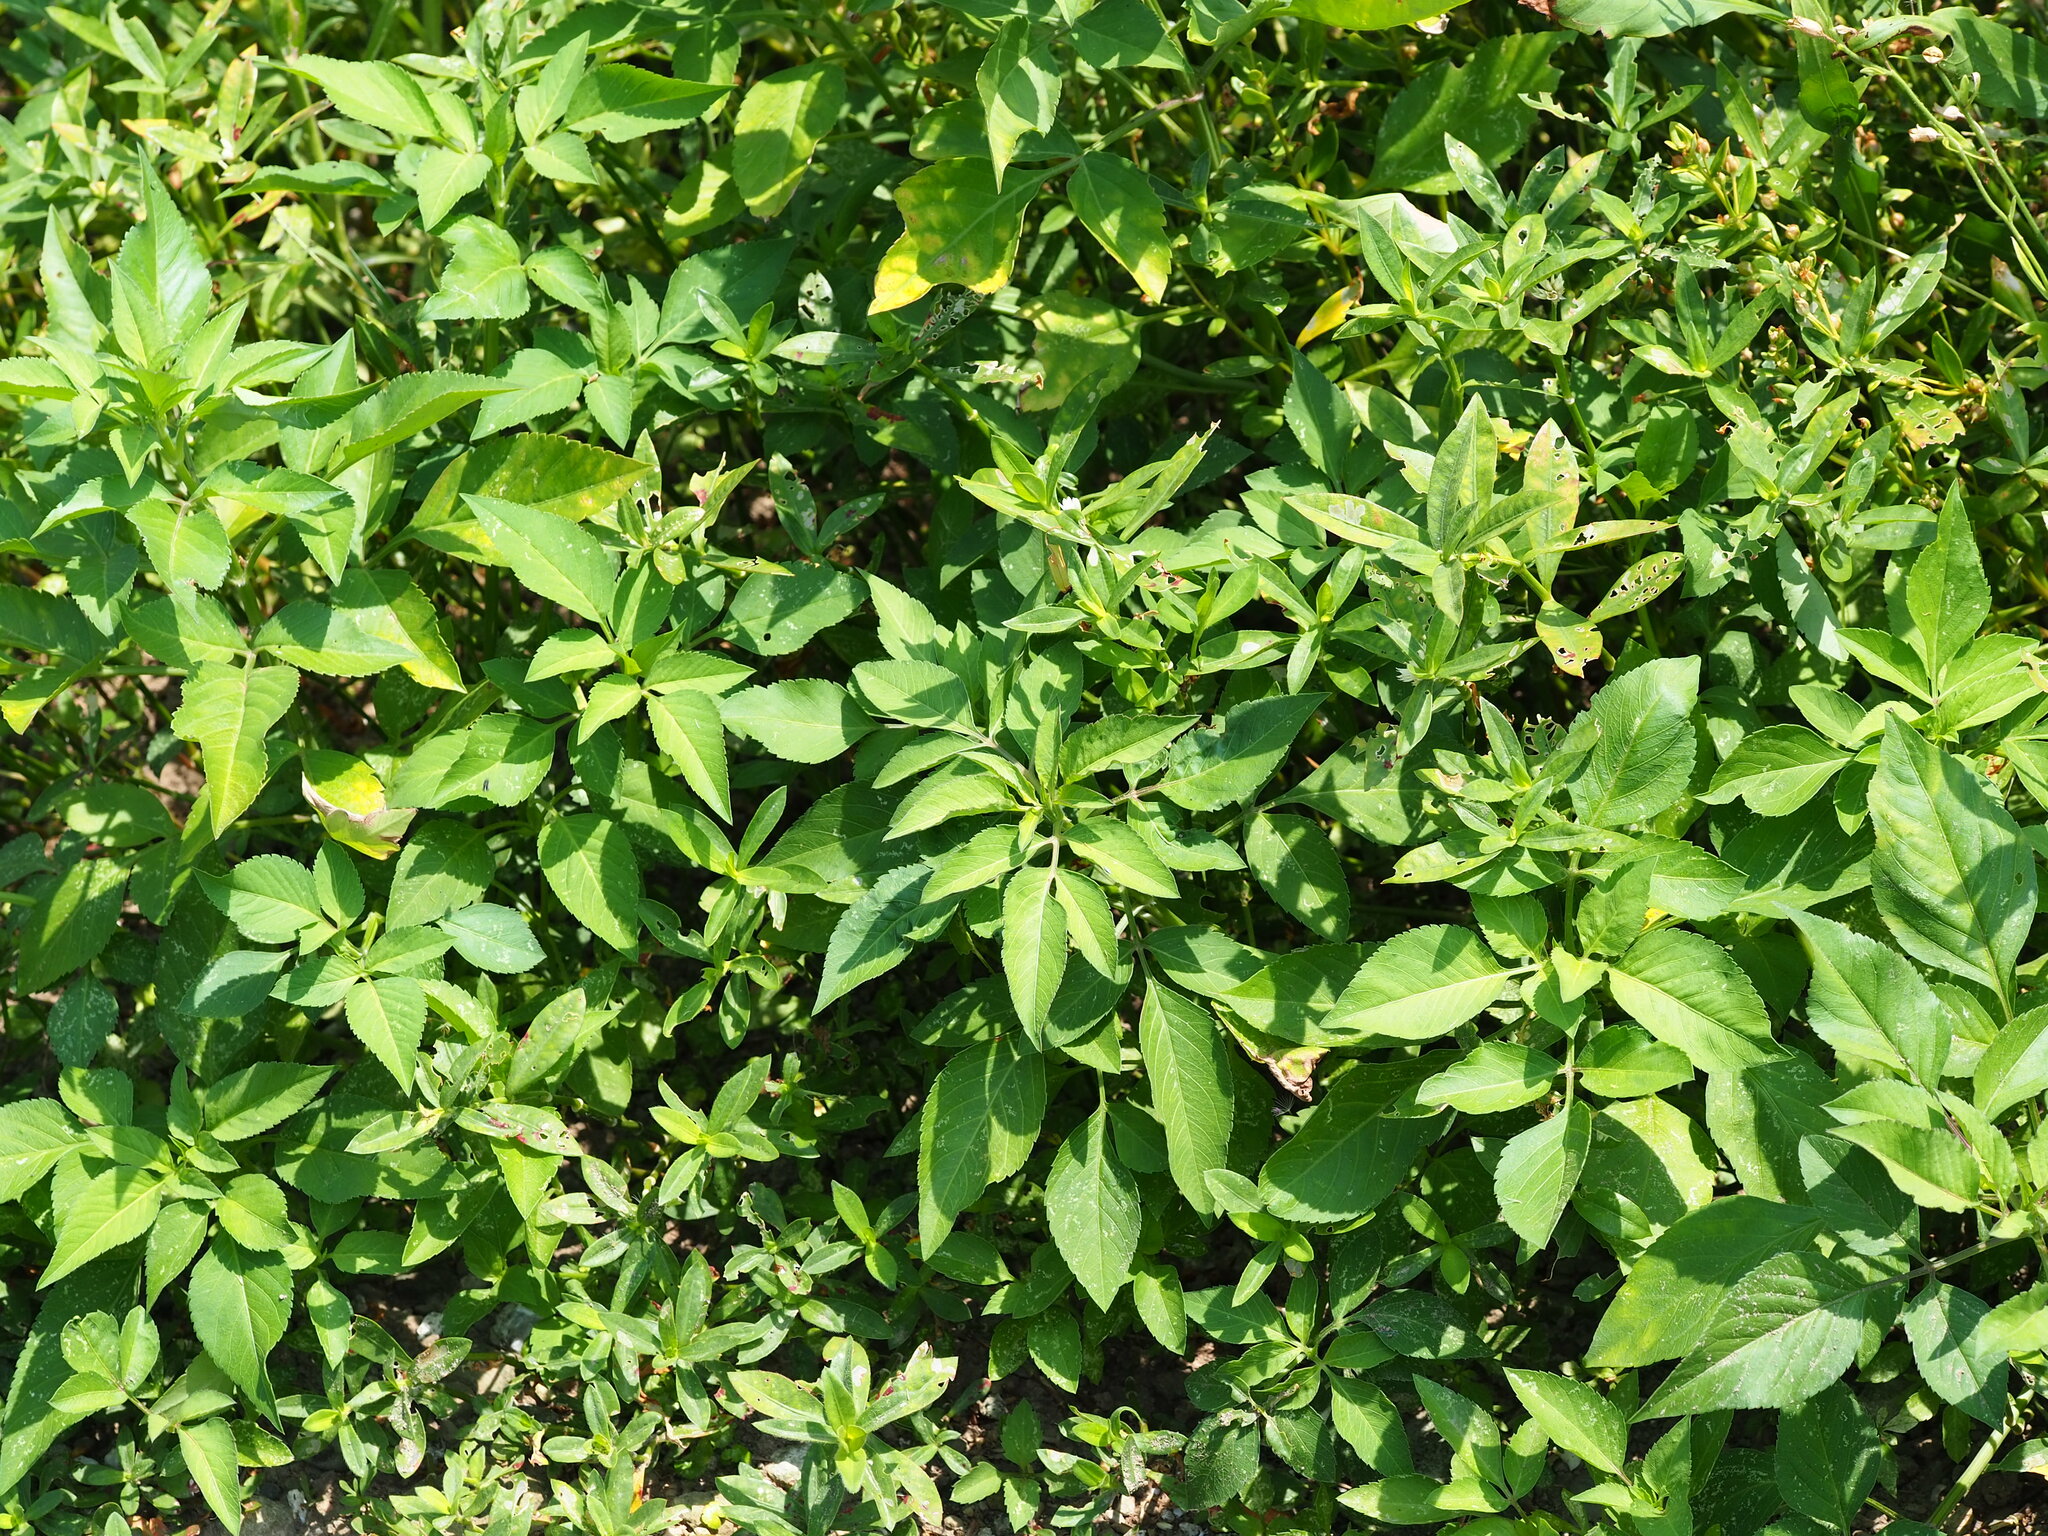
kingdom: Plantae
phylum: Tracheophyta
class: Magnoliopsida
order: Asterales
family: Asteraceae
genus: Bidens
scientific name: Bidens alba
